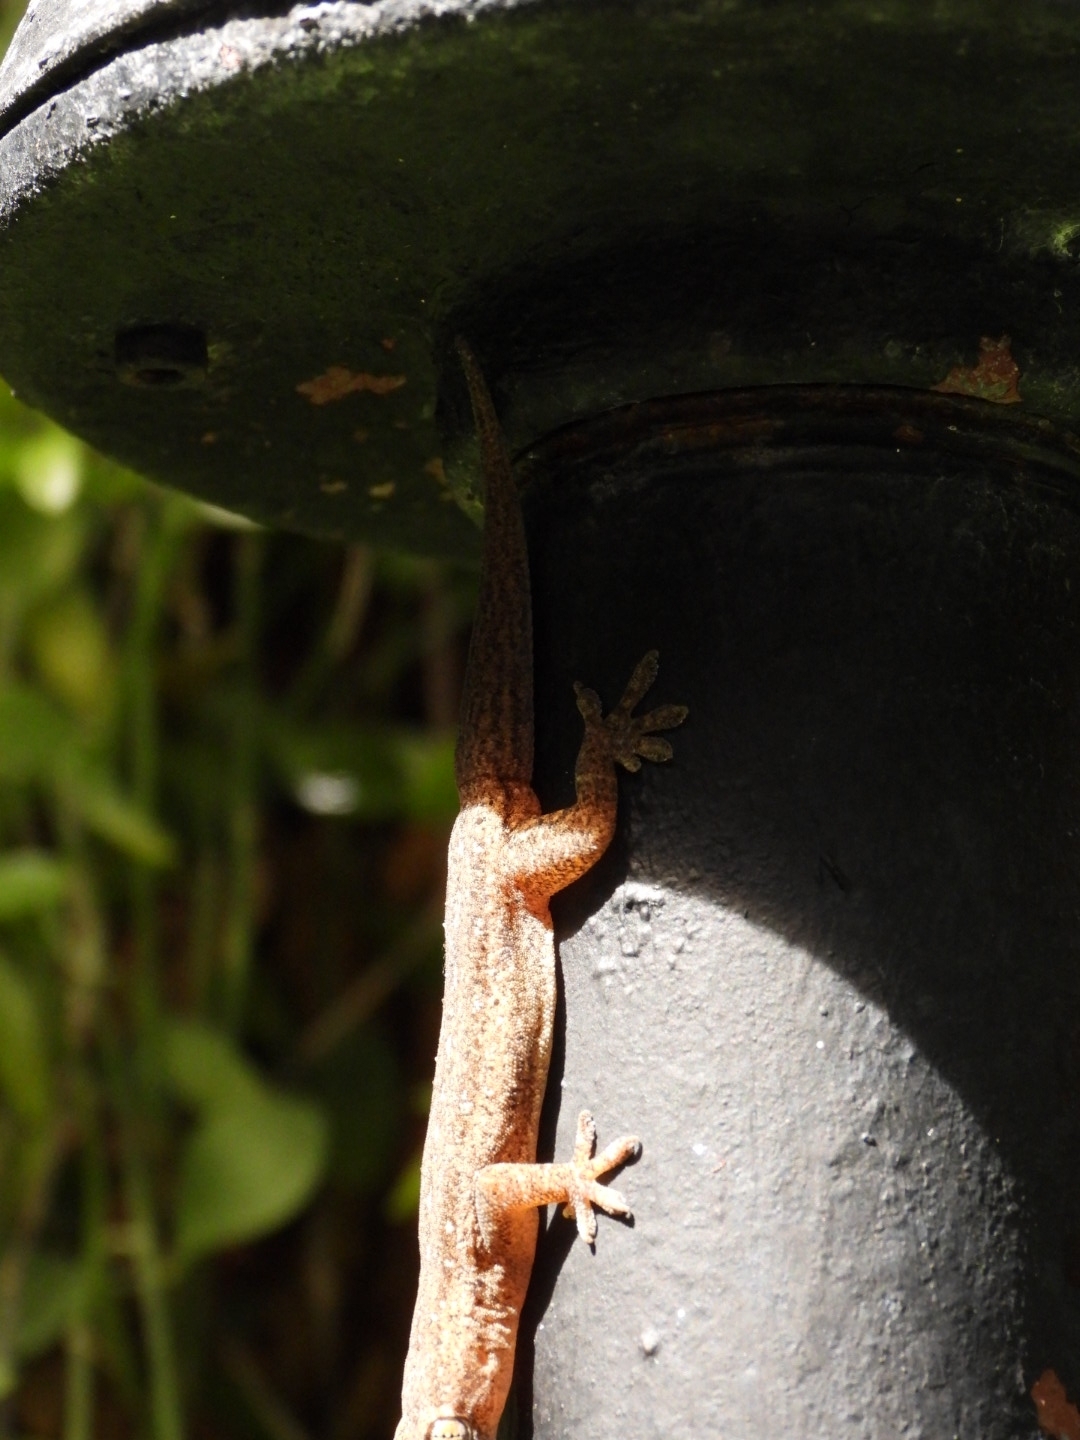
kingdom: Animalia
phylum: Chordata
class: Squamata
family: Gekkonidae
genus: Hemidactylus
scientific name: Hemidactylus frenatus
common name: Common house gecko
